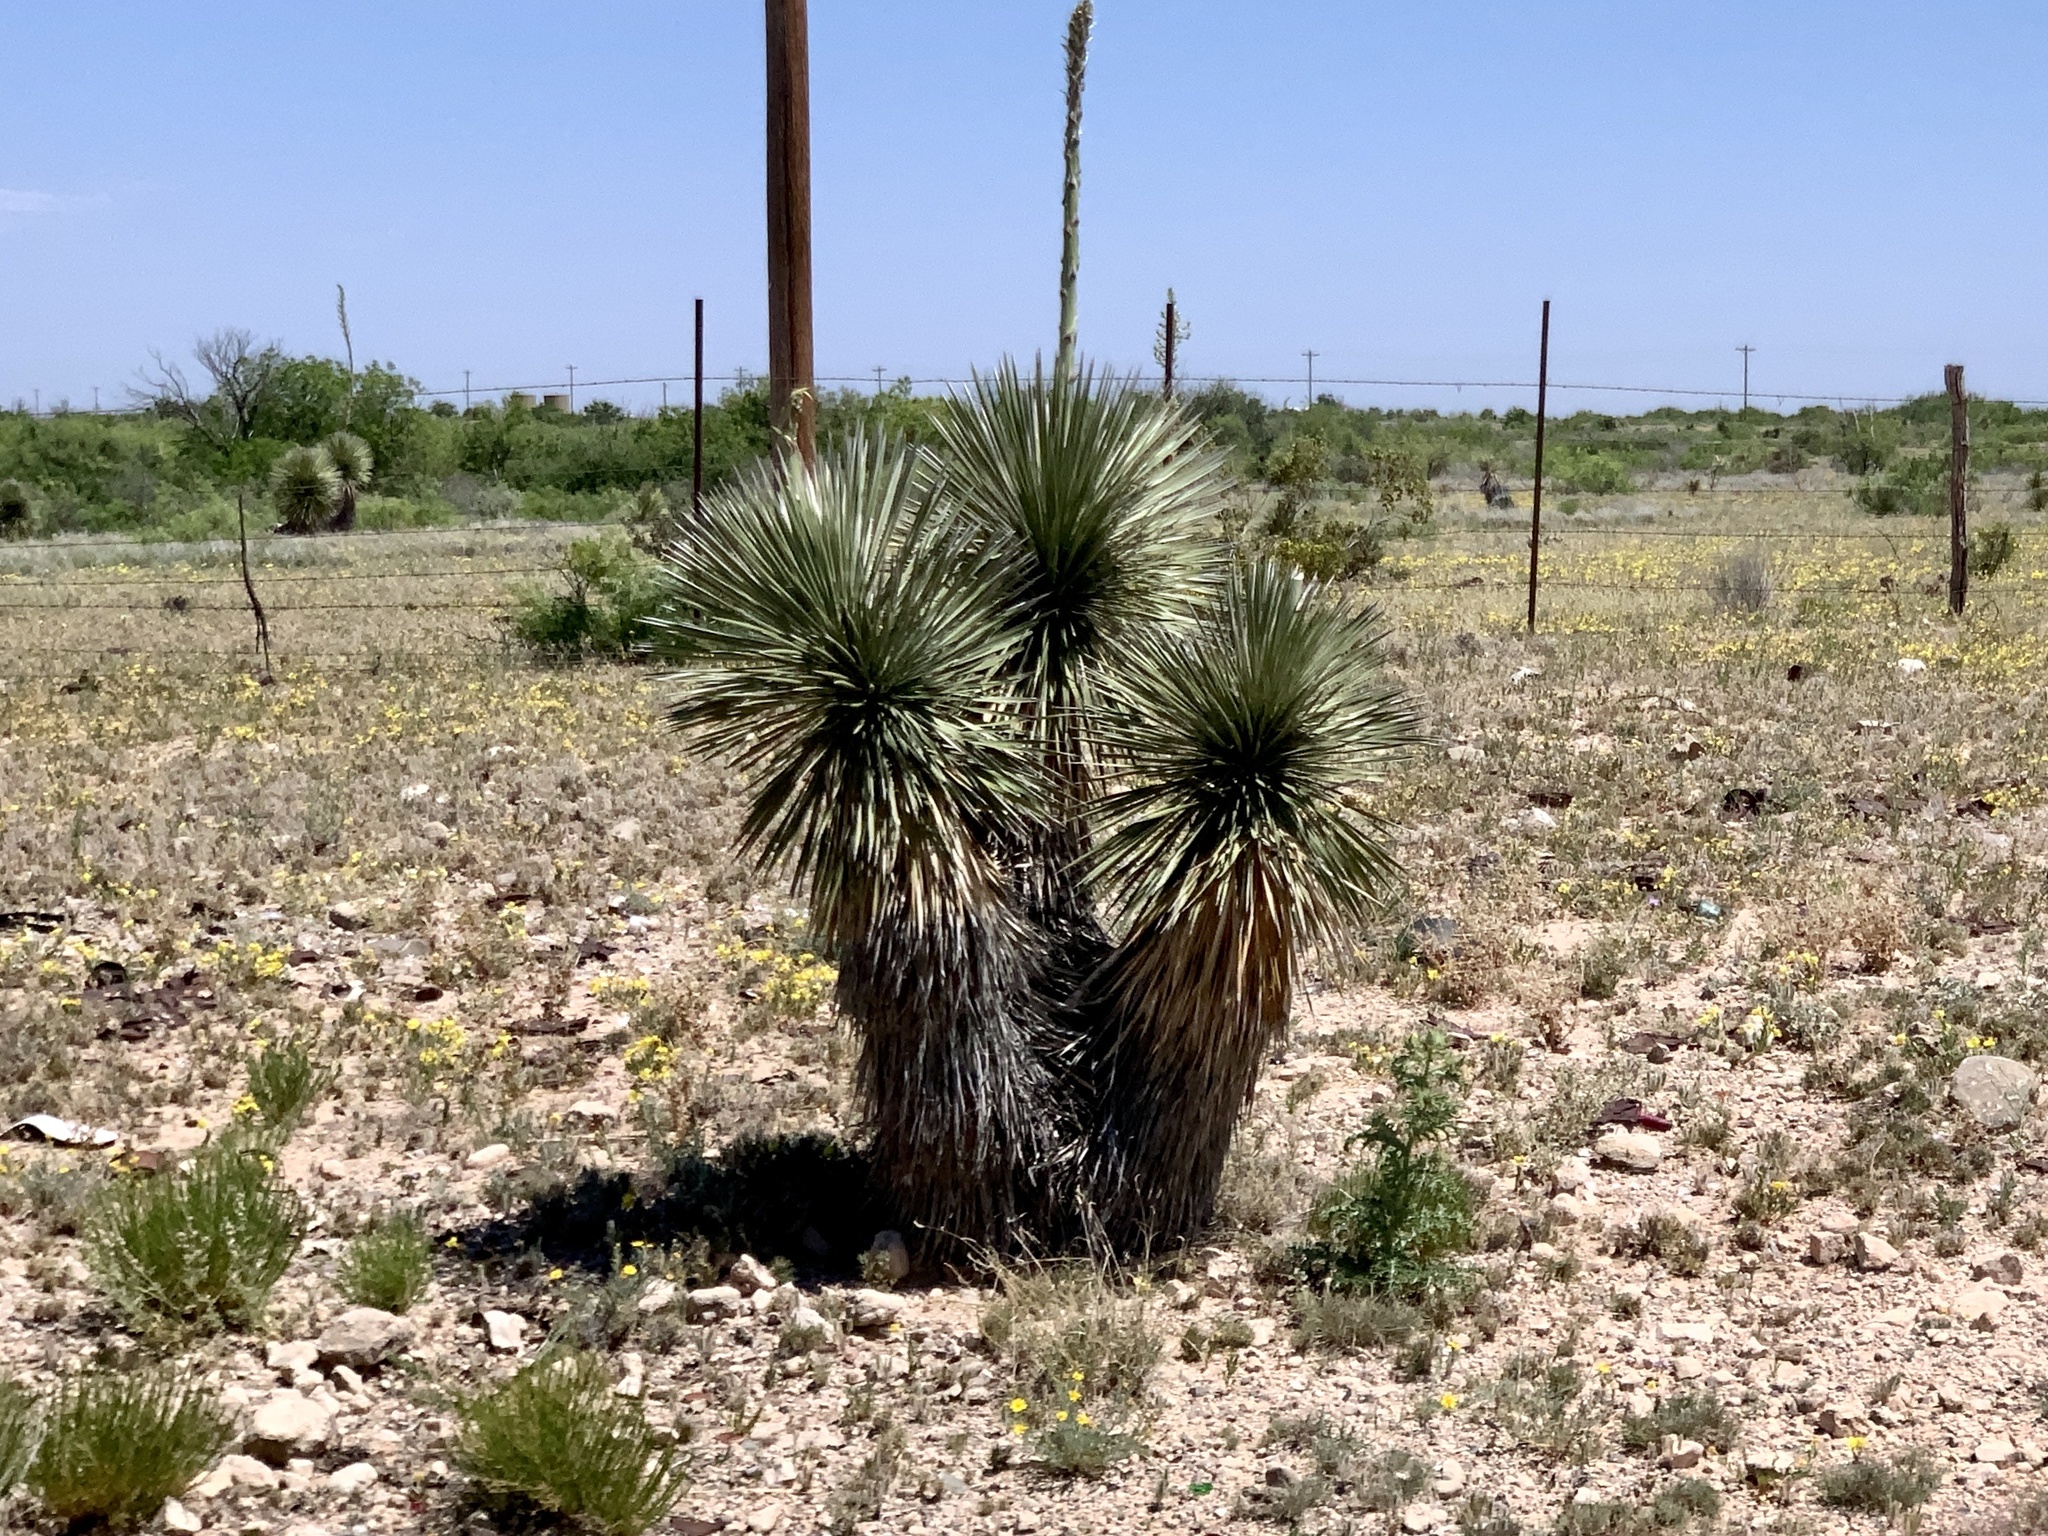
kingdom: Plantae
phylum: Tracheophyta
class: Liliopsida
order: Asparagales
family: Asparagaceae
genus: Yucca
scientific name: Yucca elata
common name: Palmella
